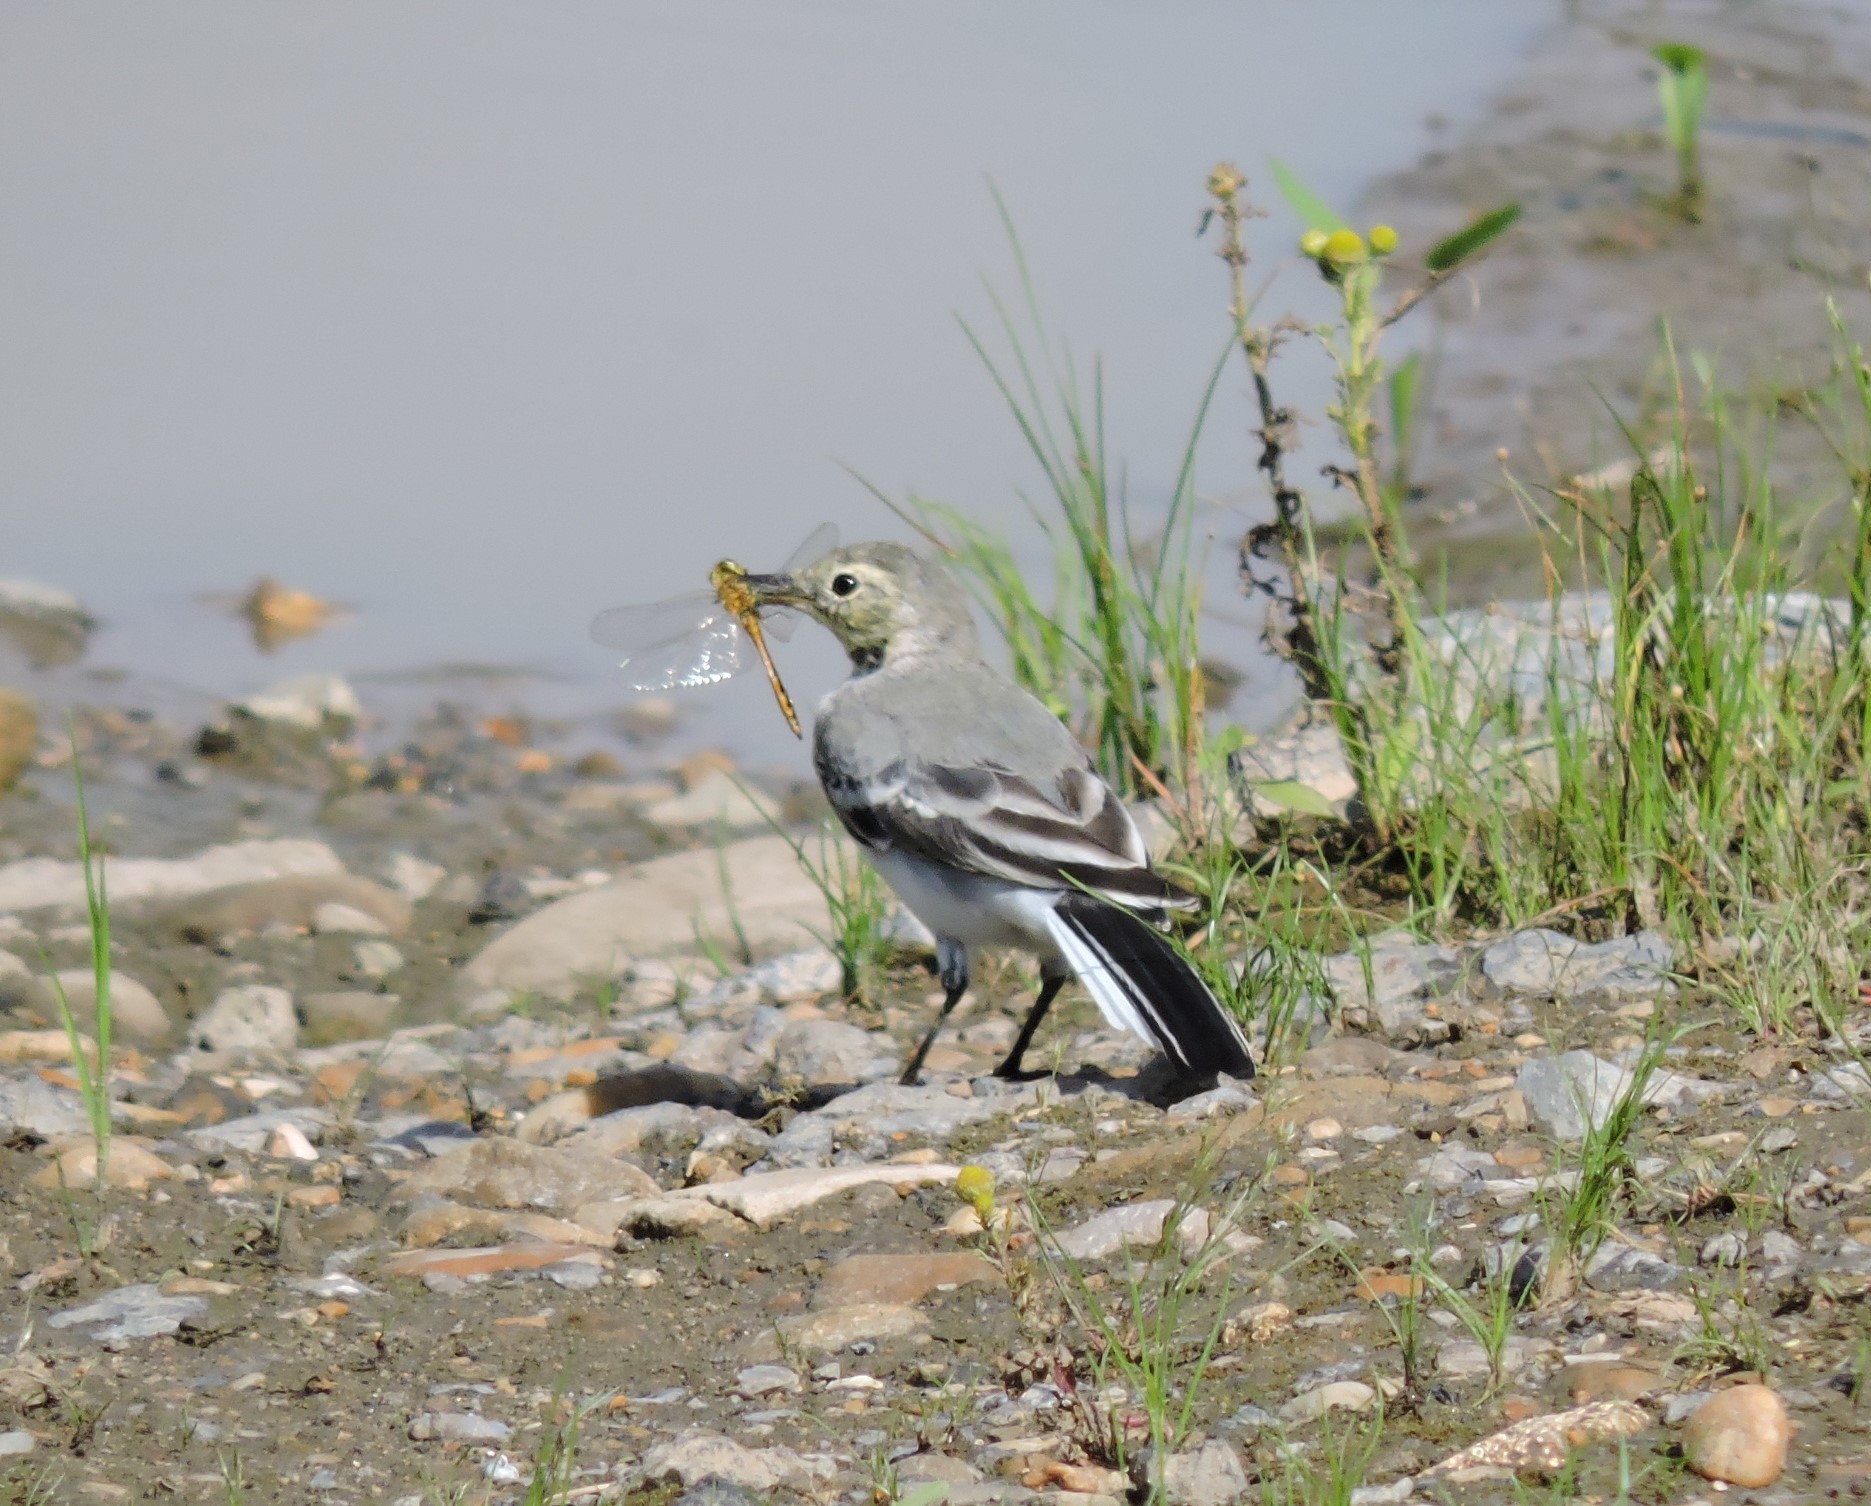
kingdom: Animalia
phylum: Chordata
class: Aves
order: Passeriformes
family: Motacillidae
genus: Motacilla
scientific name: Motacilla alba
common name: White wagtail
